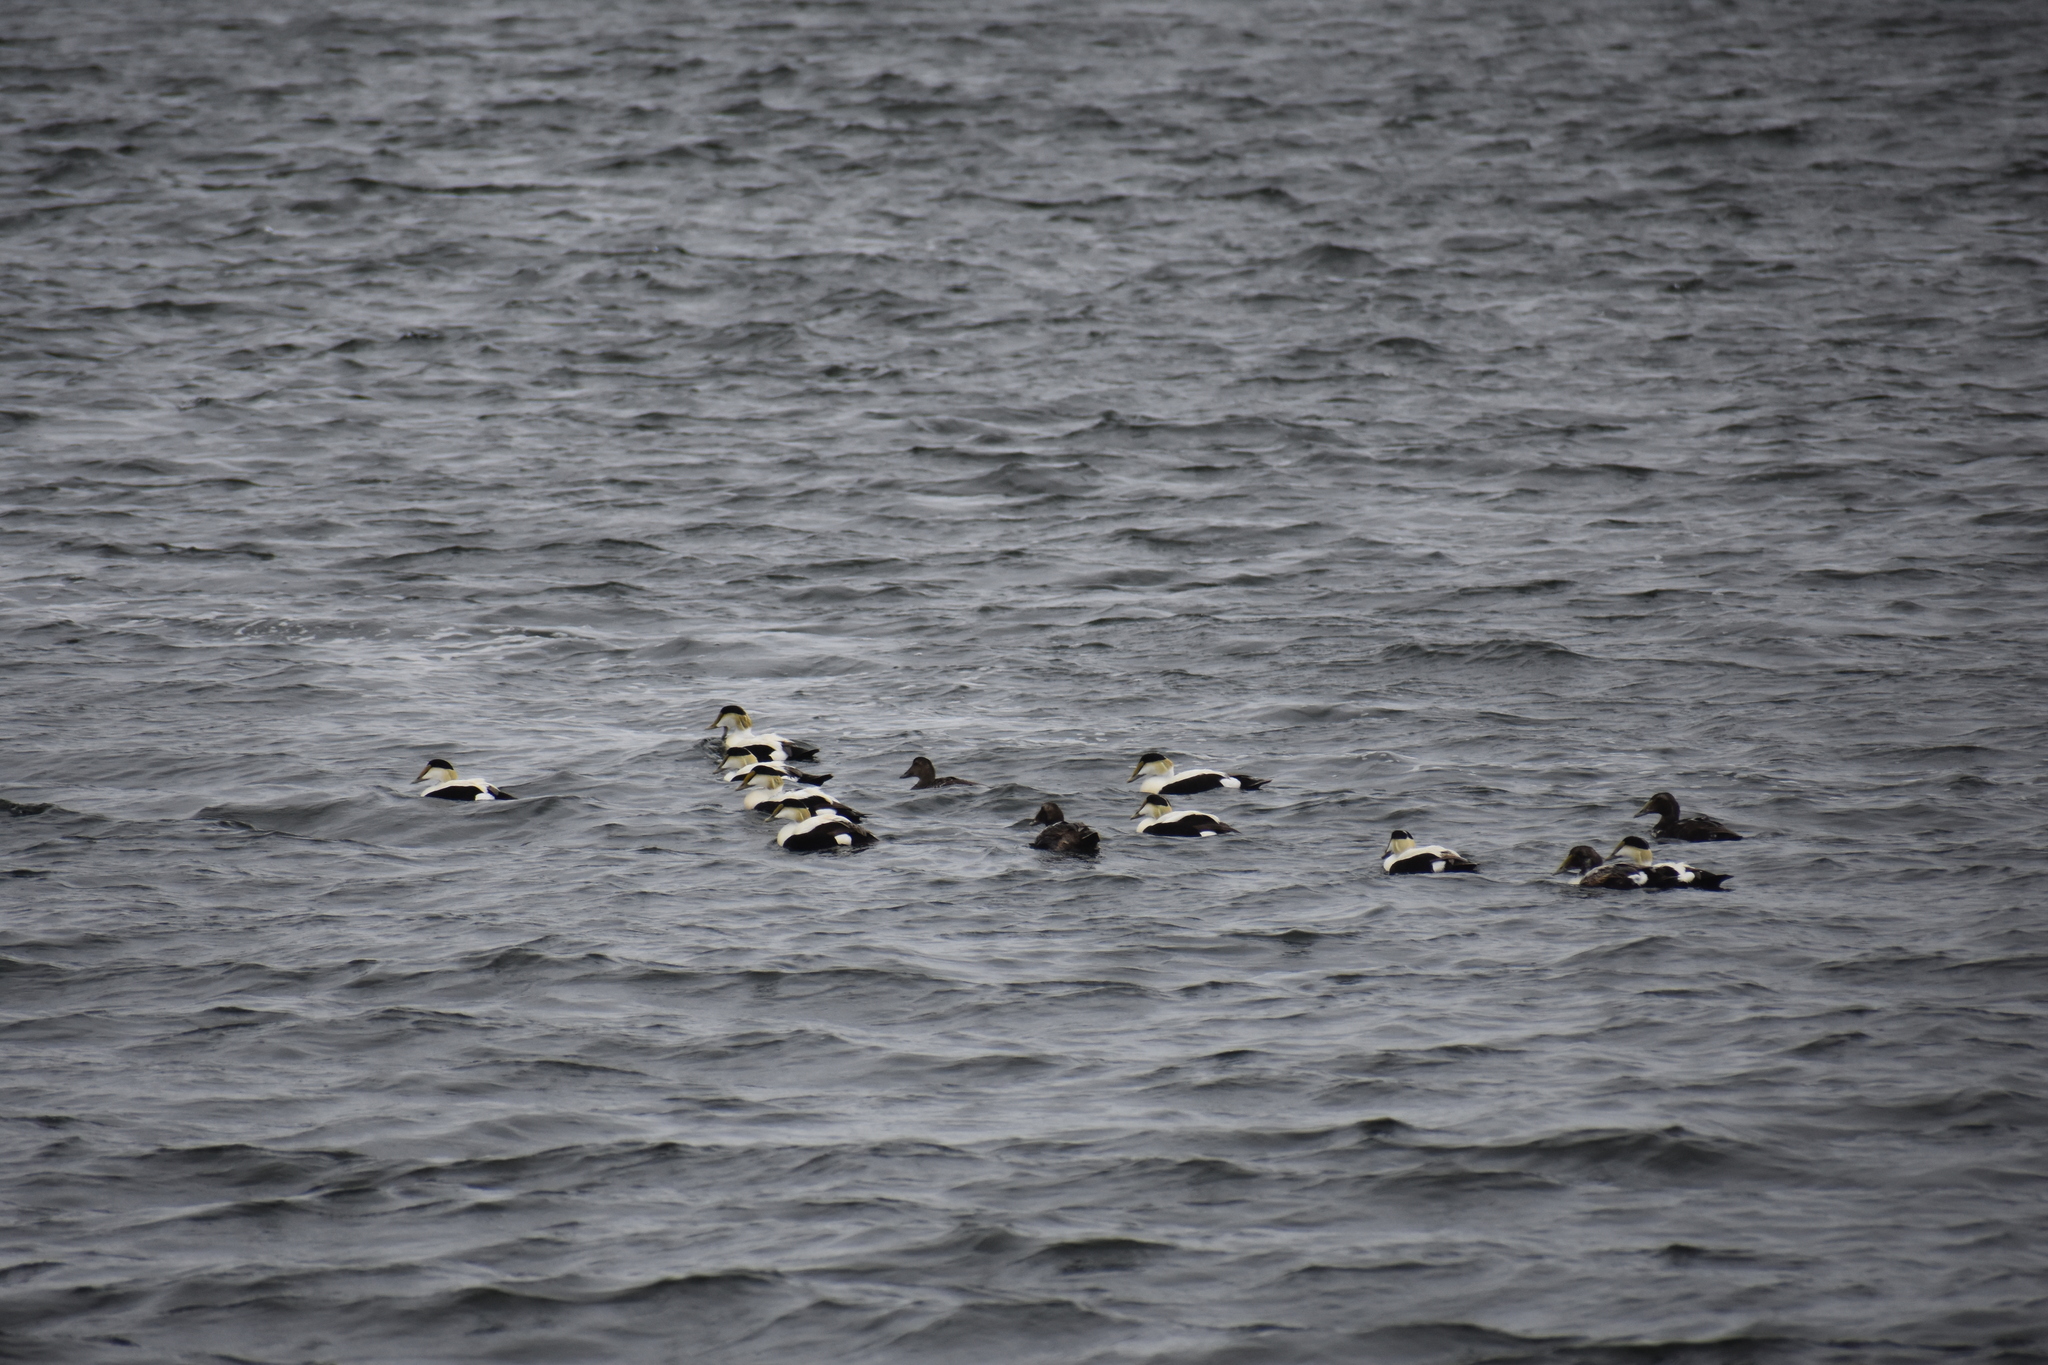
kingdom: Animalia
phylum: Chordata
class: Aves
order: Anseriformes
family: Anatidae
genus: Somateria
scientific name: Somateria mollissima
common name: Common eider
